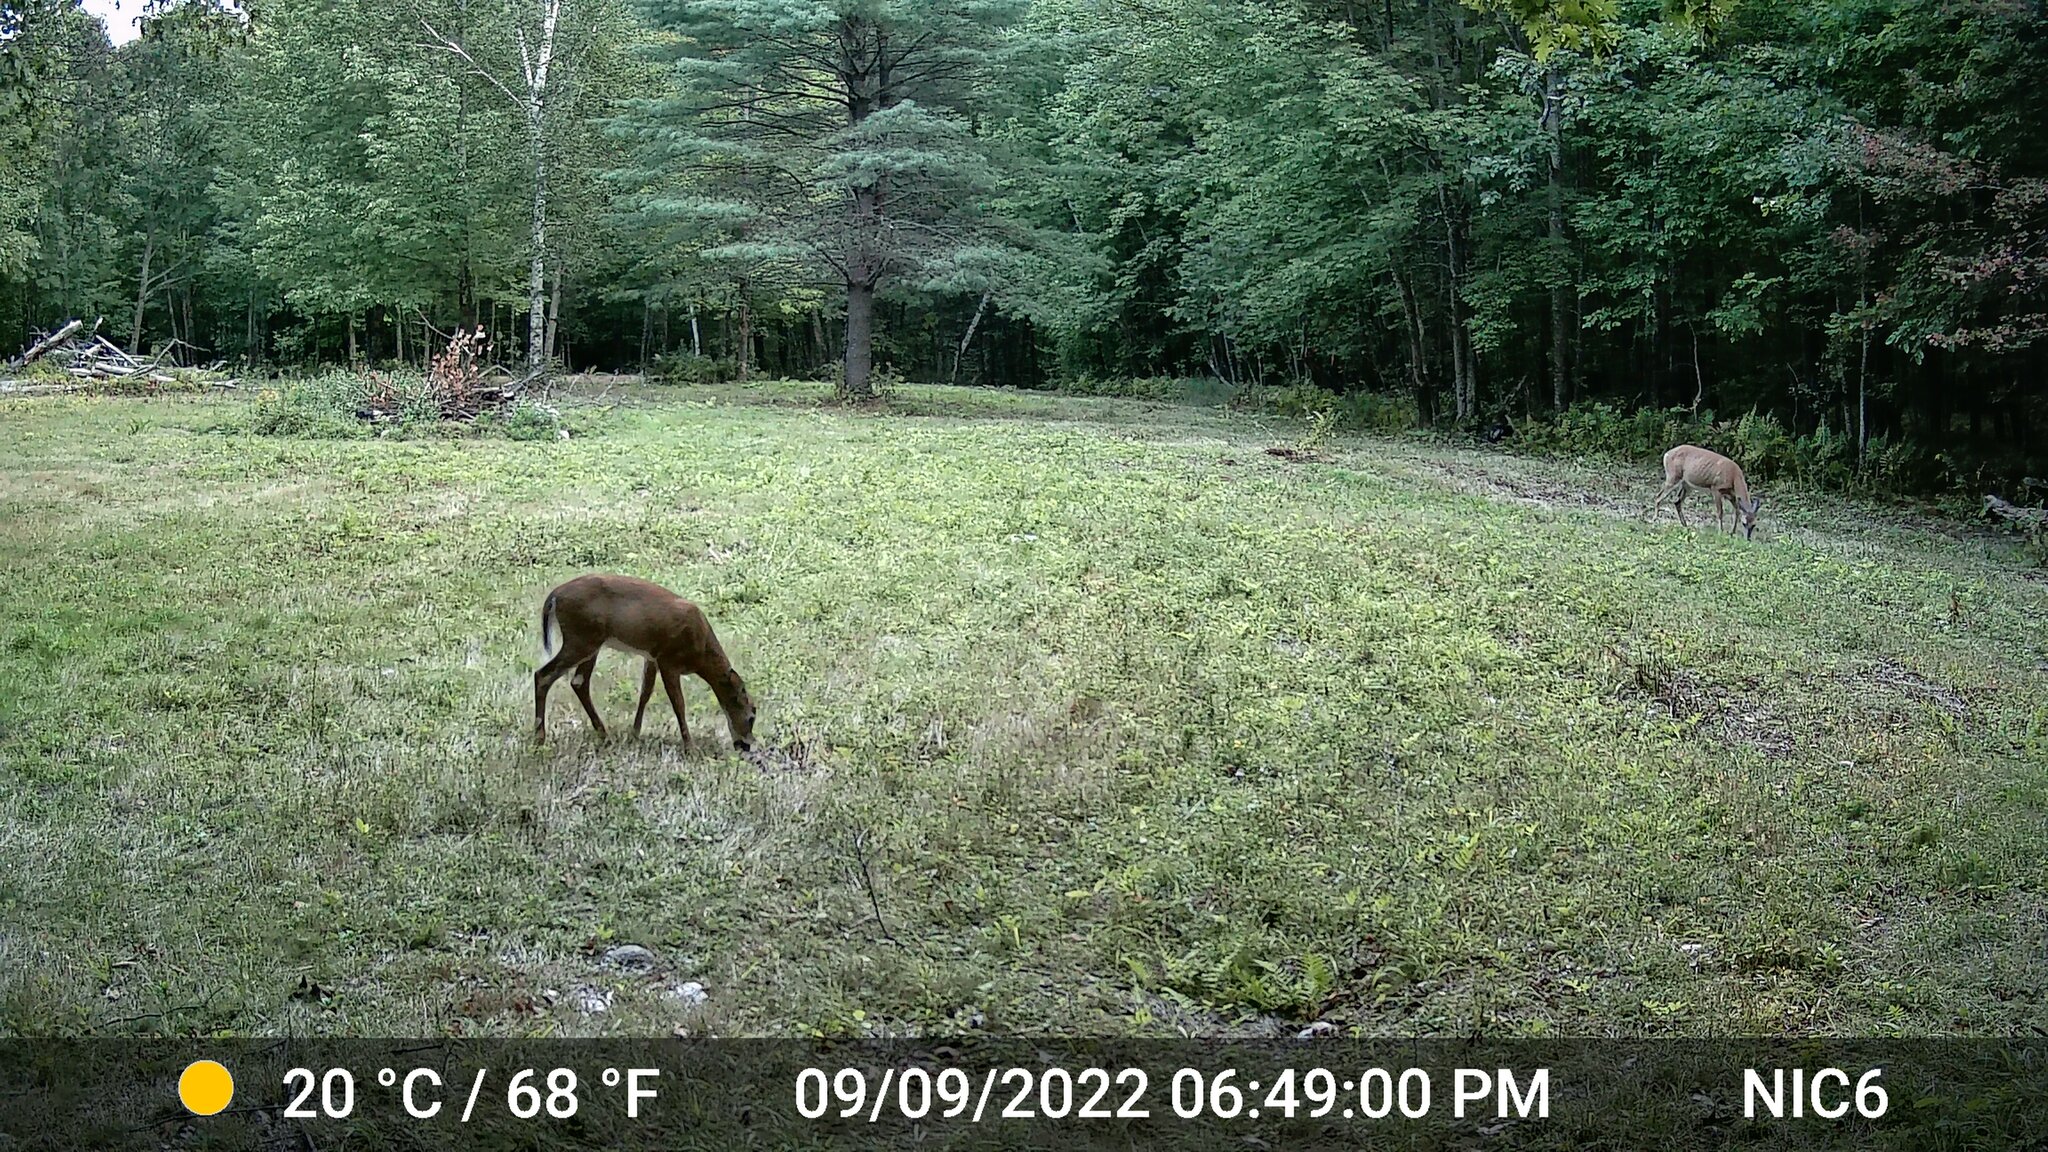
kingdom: Animalia
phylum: Chordata
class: Mammalia
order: Artiodactyla
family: Cervidae
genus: Odocoileus
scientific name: Odocoileus virginianus
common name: White-tailed deer
